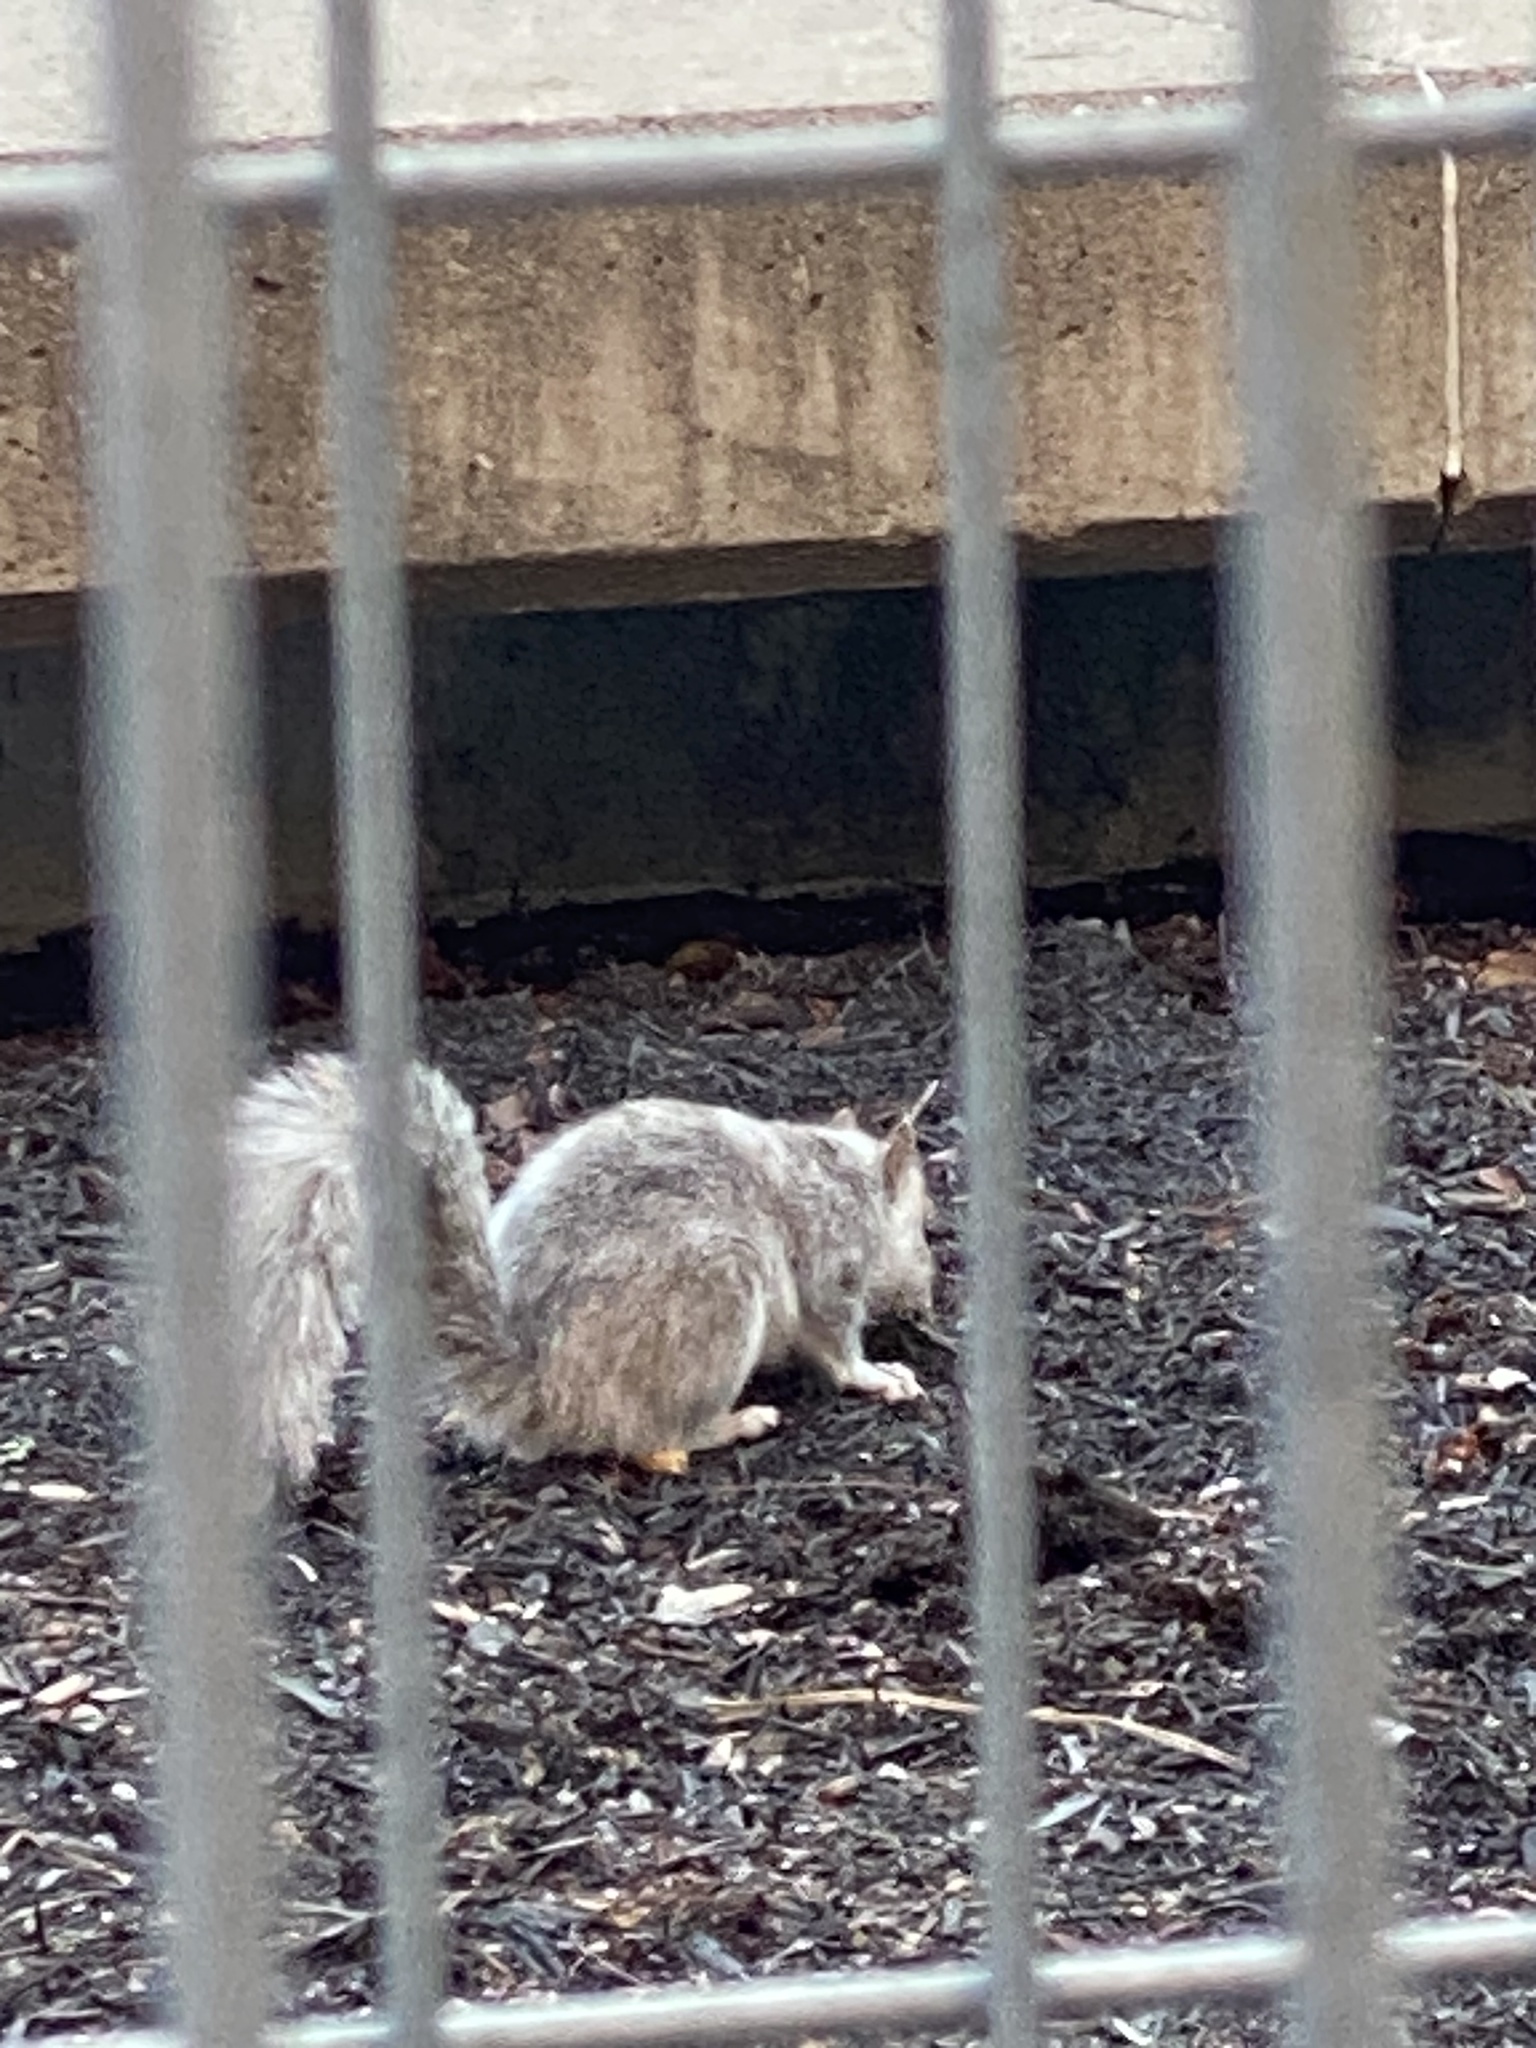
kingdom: Animalia
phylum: Chordata
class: Mammalia
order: Rodentia
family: Sciuridae
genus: Sciurus
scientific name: Sciurus carolinensis
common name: Eastern gray squirrel
